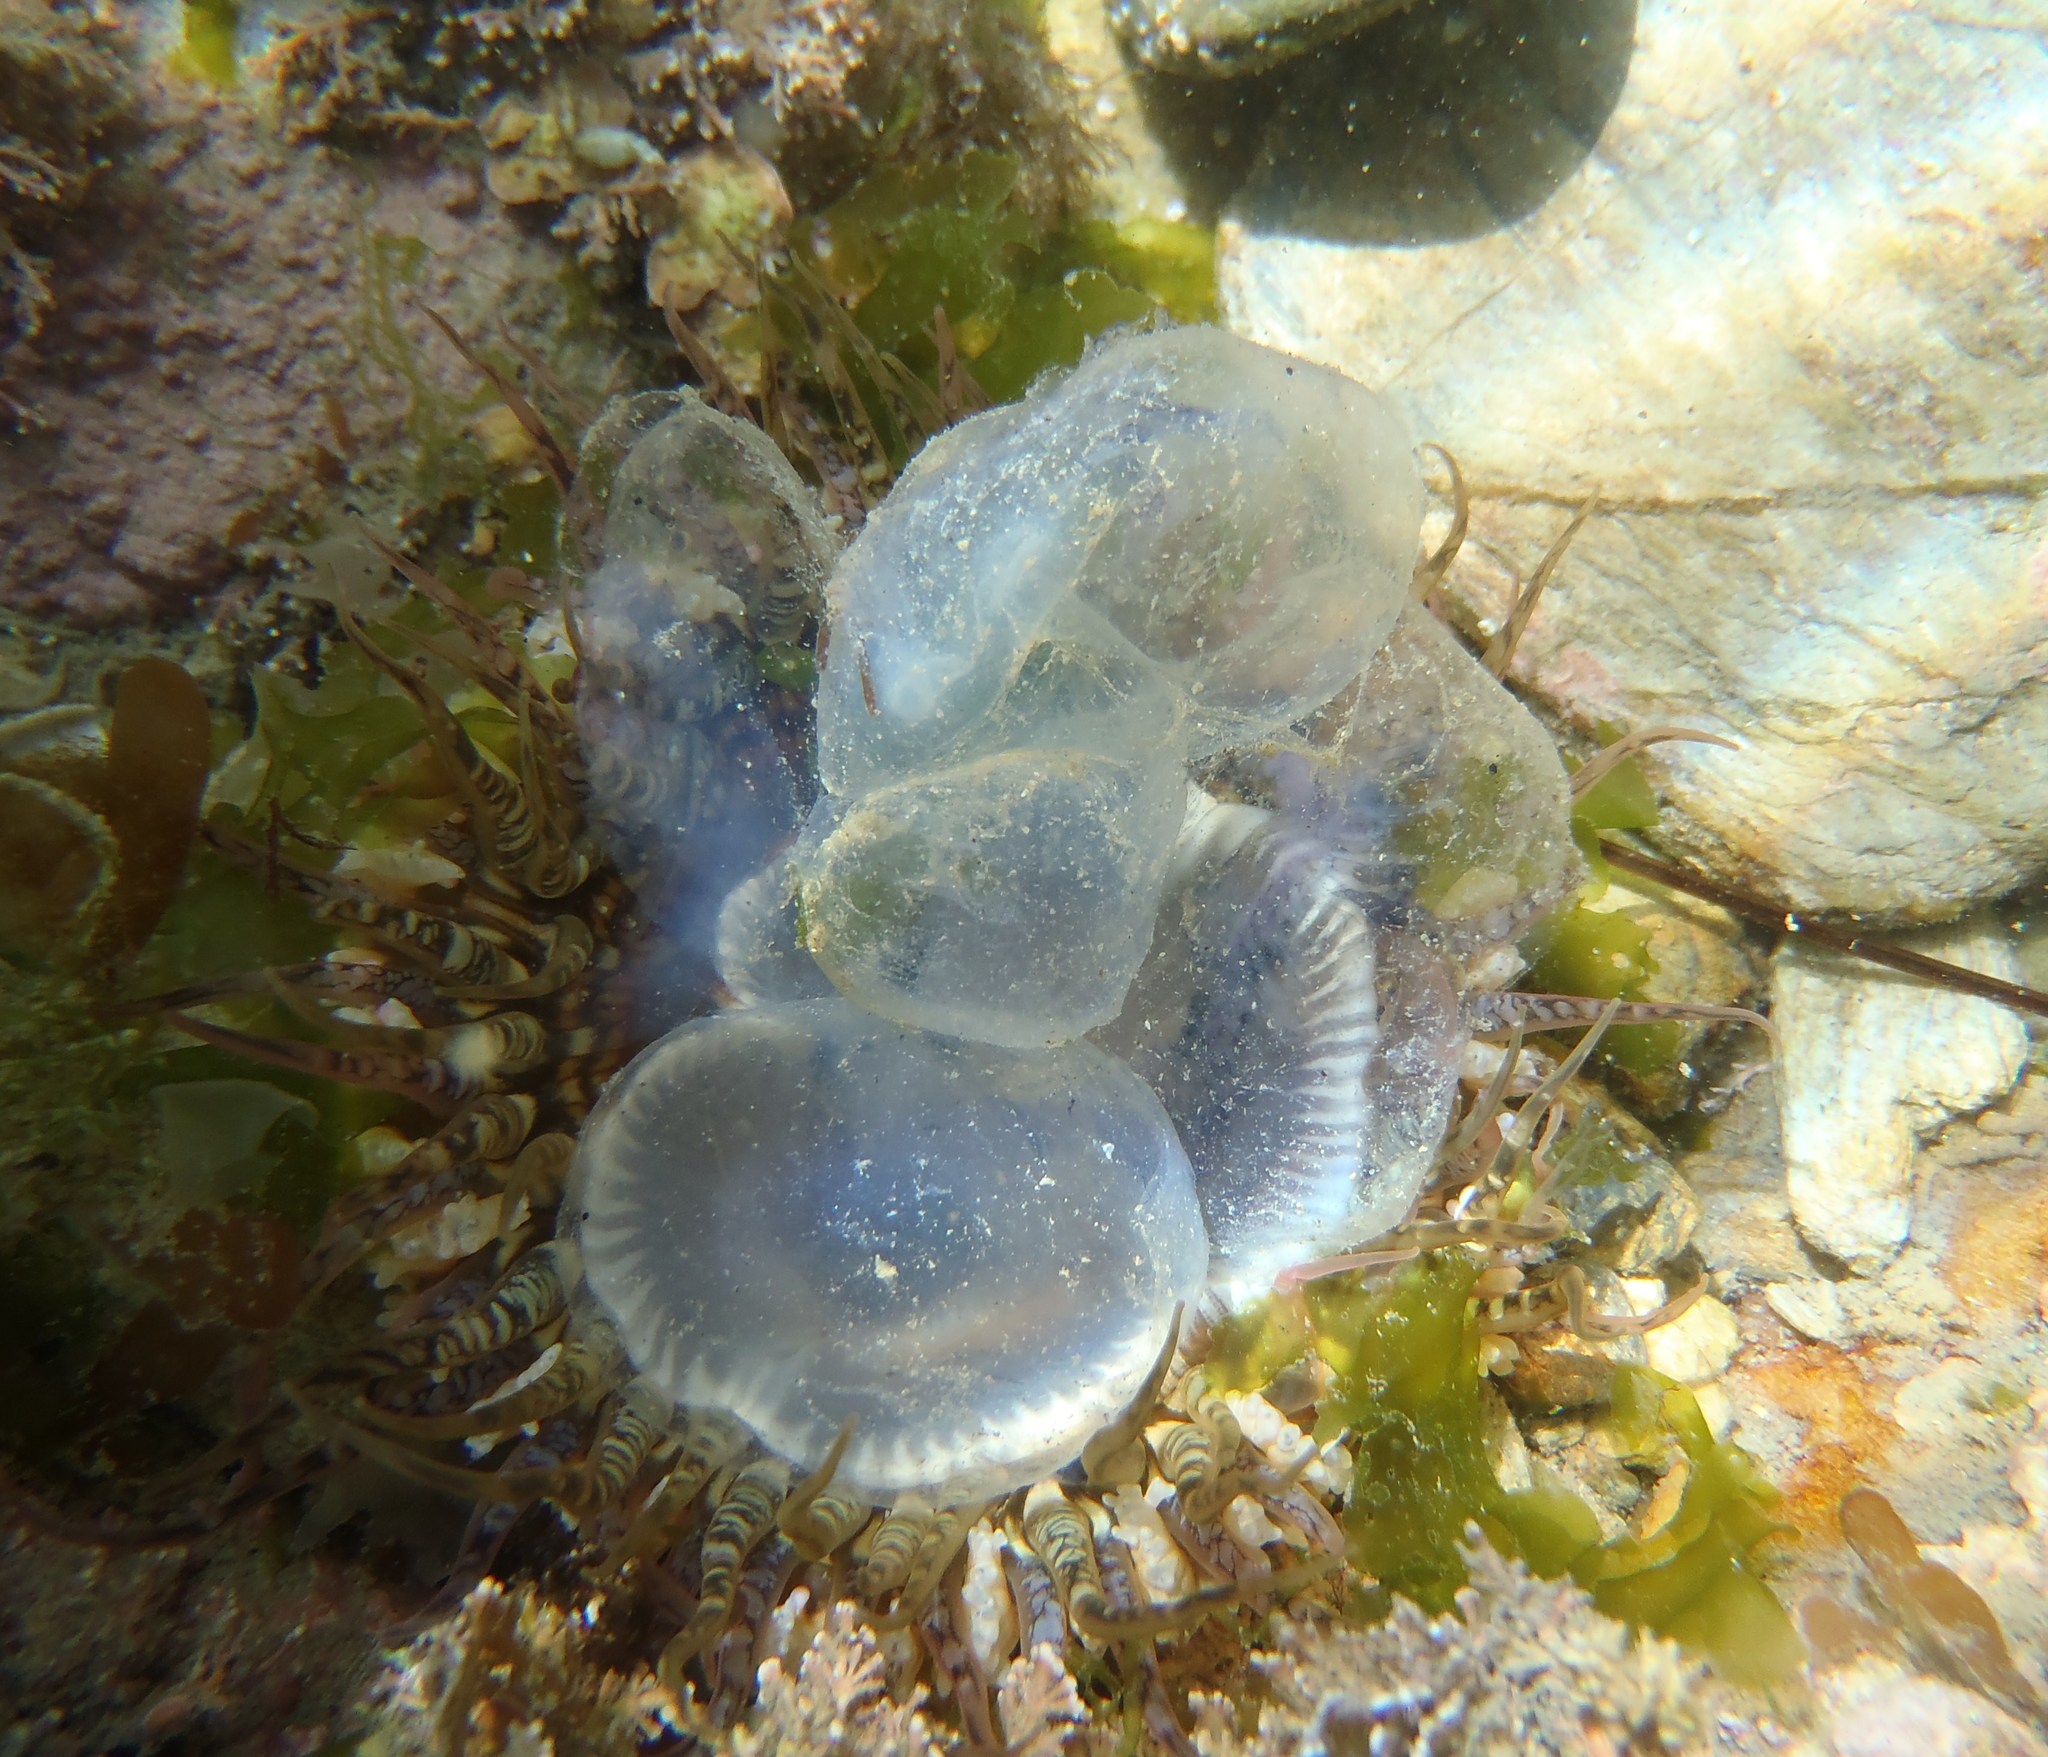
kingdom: Animalia
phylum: Cnidaria
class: Anthozoa
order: Actiniaria
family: Actiniidae
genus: Oulactis
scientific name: Oulactis muscosa
